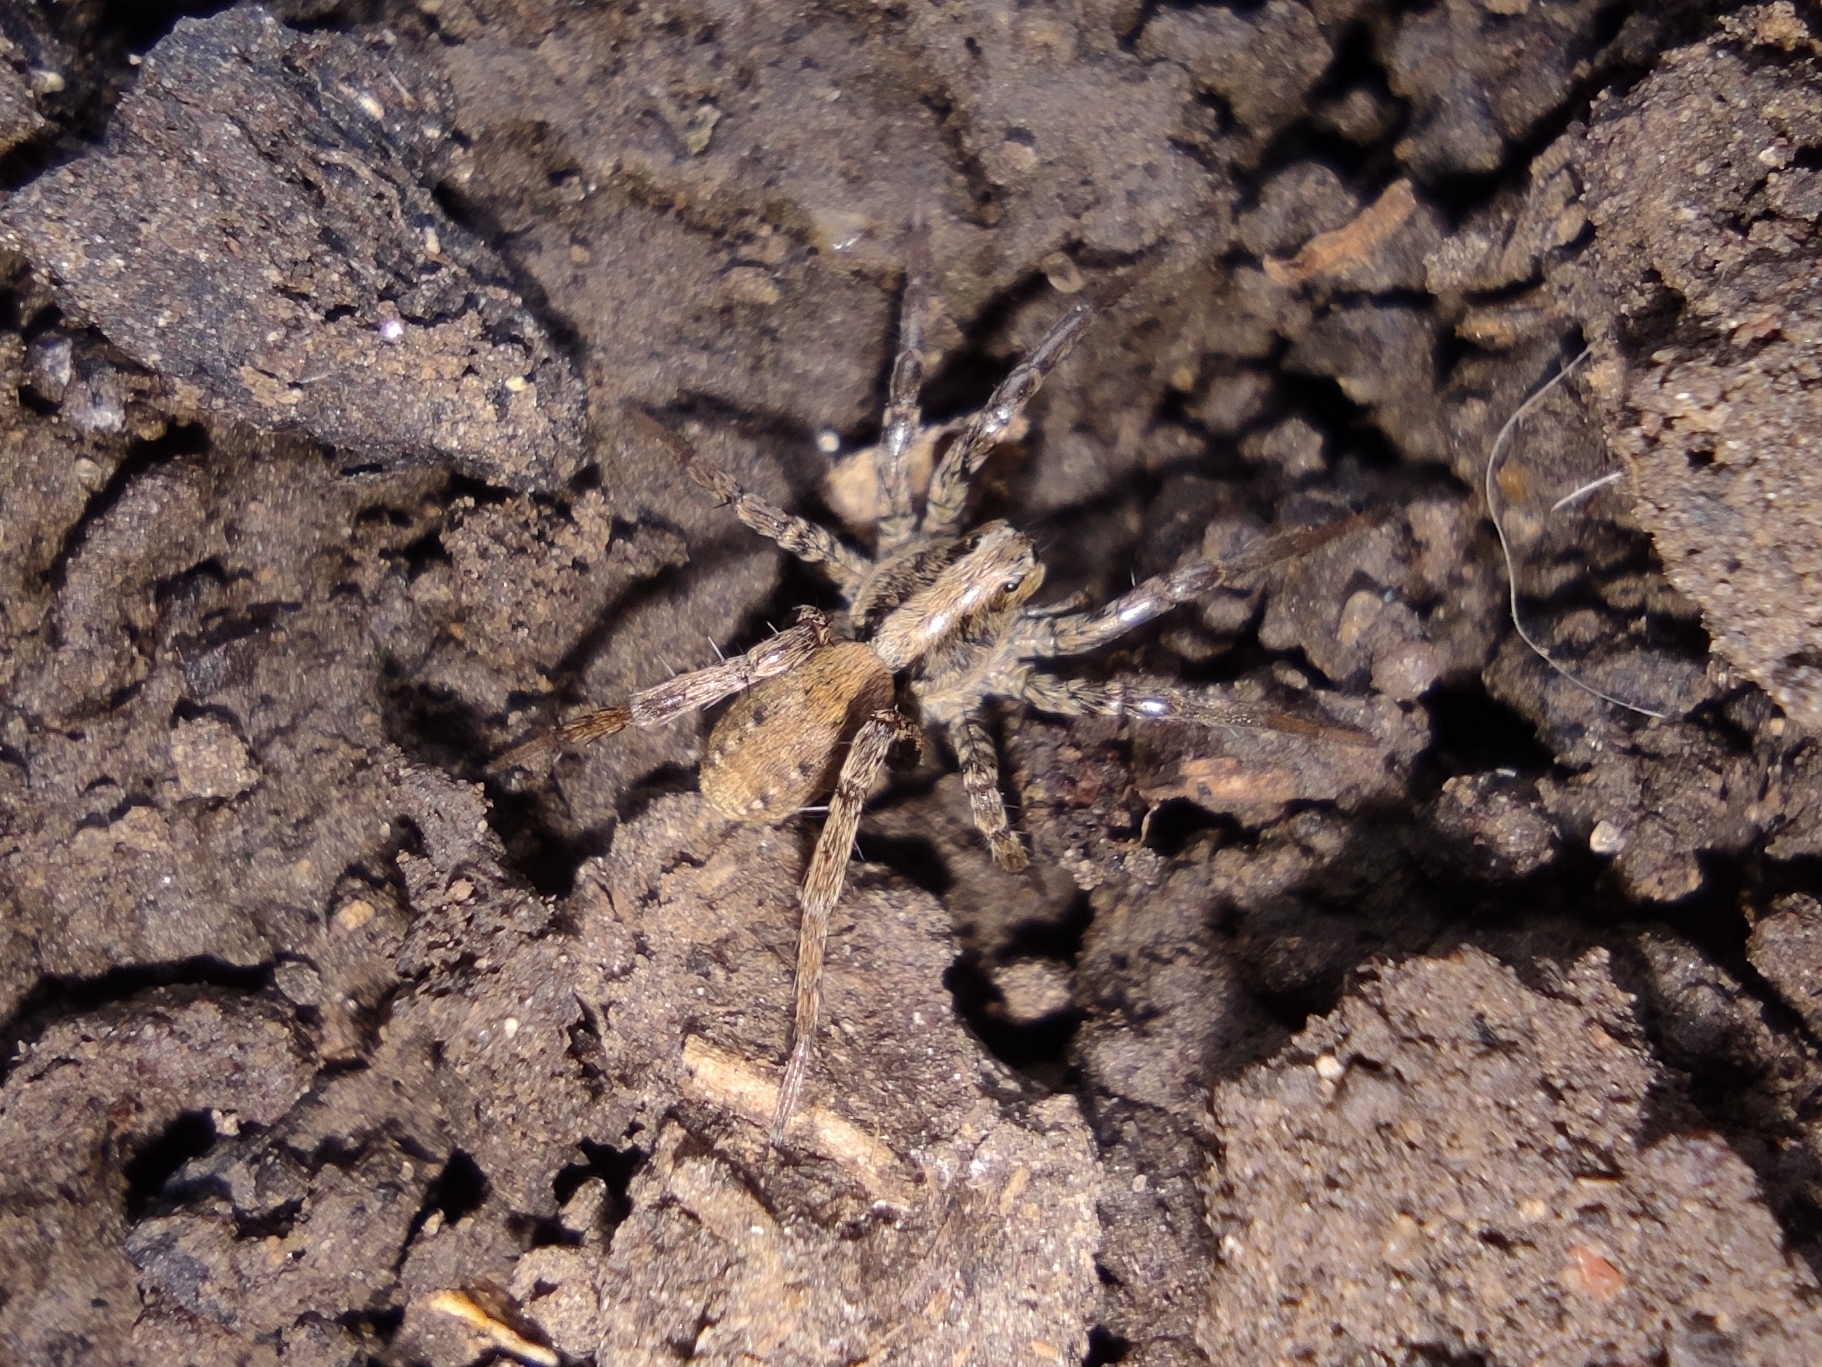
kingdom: Animalia
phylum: Arthropoda
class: Arachnida
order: Araneae
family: Lycosidae
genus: Xerolycosa
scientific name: Xerolycosa miniata
